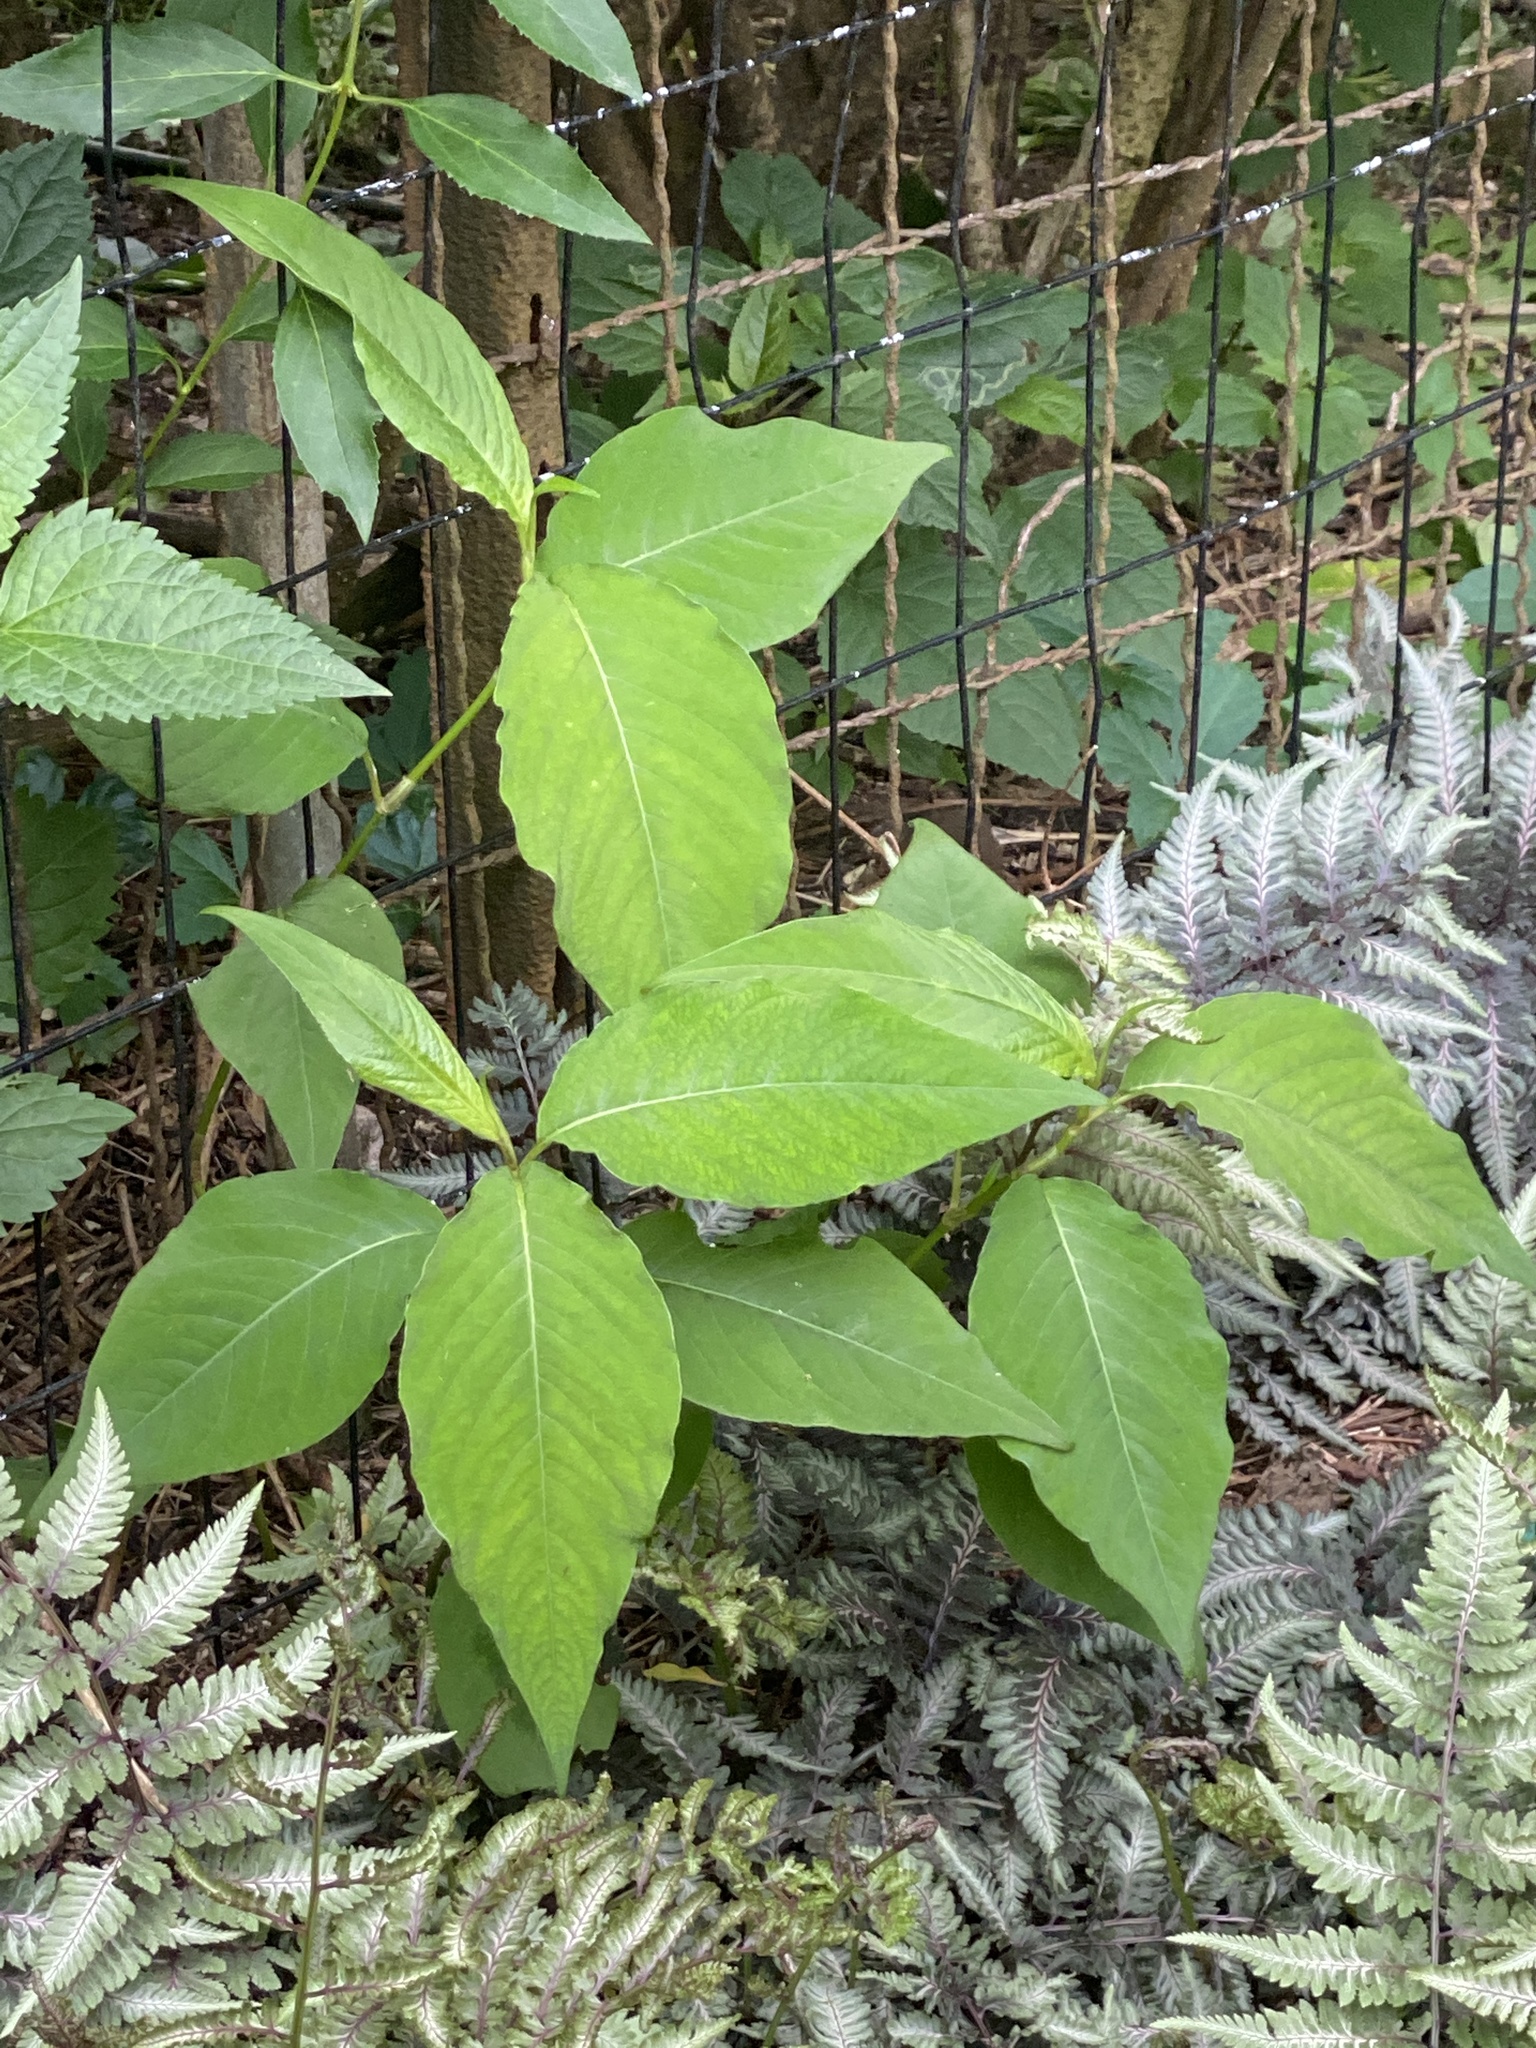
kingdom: Plantae
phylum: Tracheophyta
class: Magnoliopsida
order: Caryophyllales
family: Polygonaceae
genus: Persicaria
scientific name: Persicaria virginiana
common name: Jumpseed
